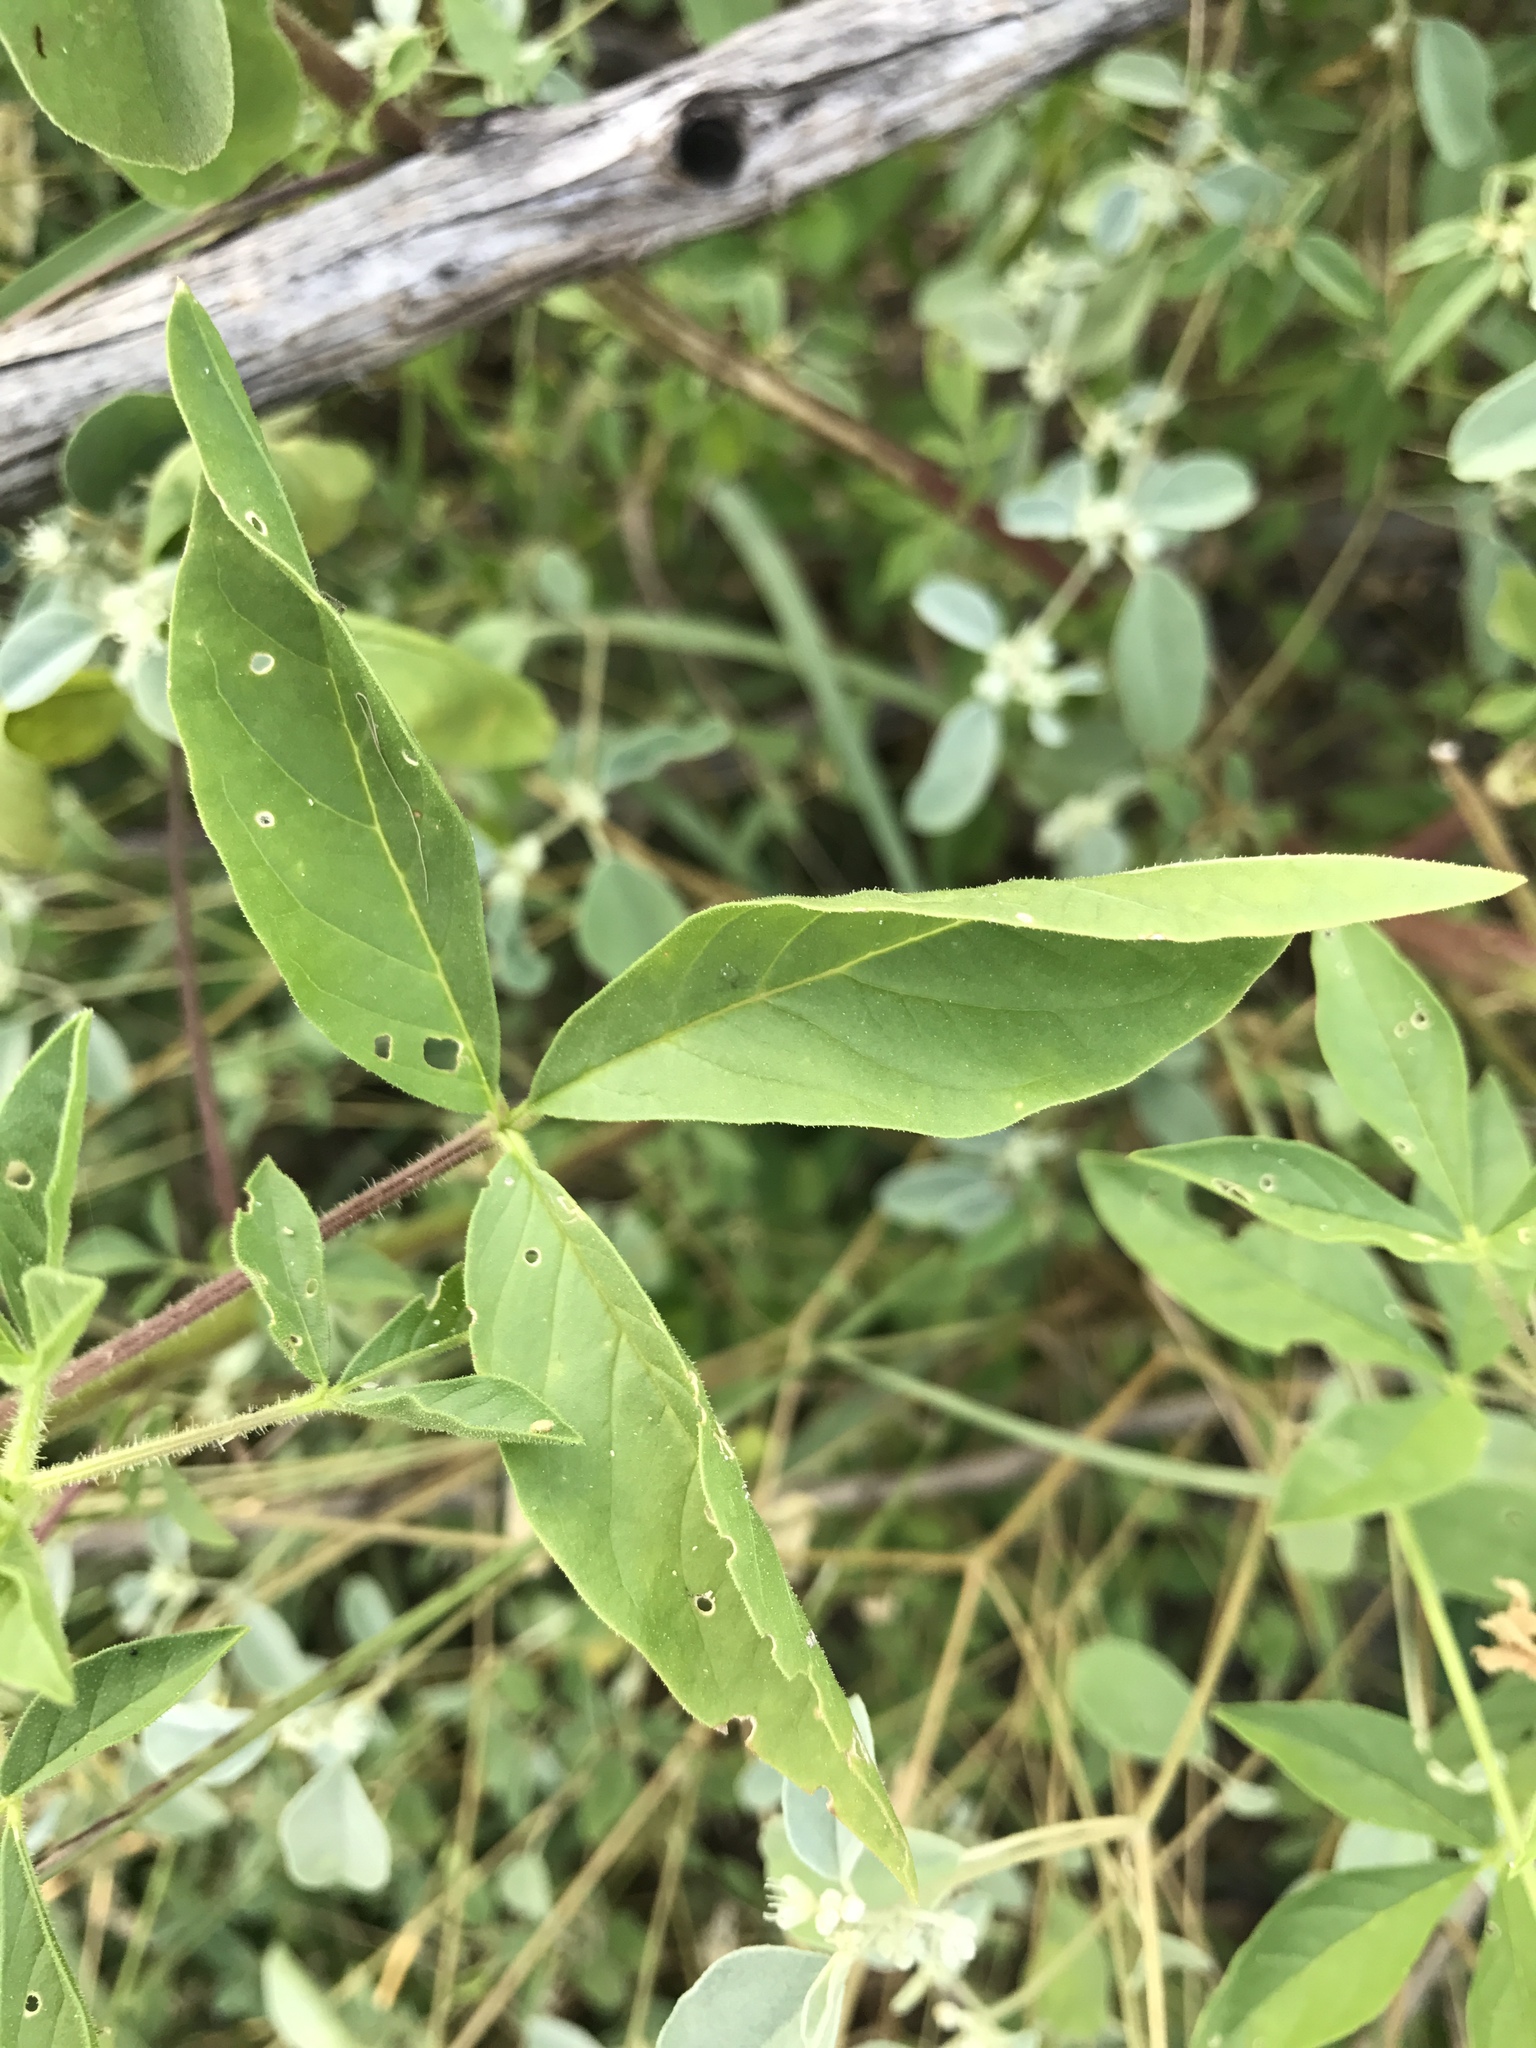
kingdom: Plantae
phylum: Tracheophyta
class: Magnoliopsida
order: Brassicales
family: Cleomaceae
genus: Polanisia
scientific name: Polanisia trachysperma
